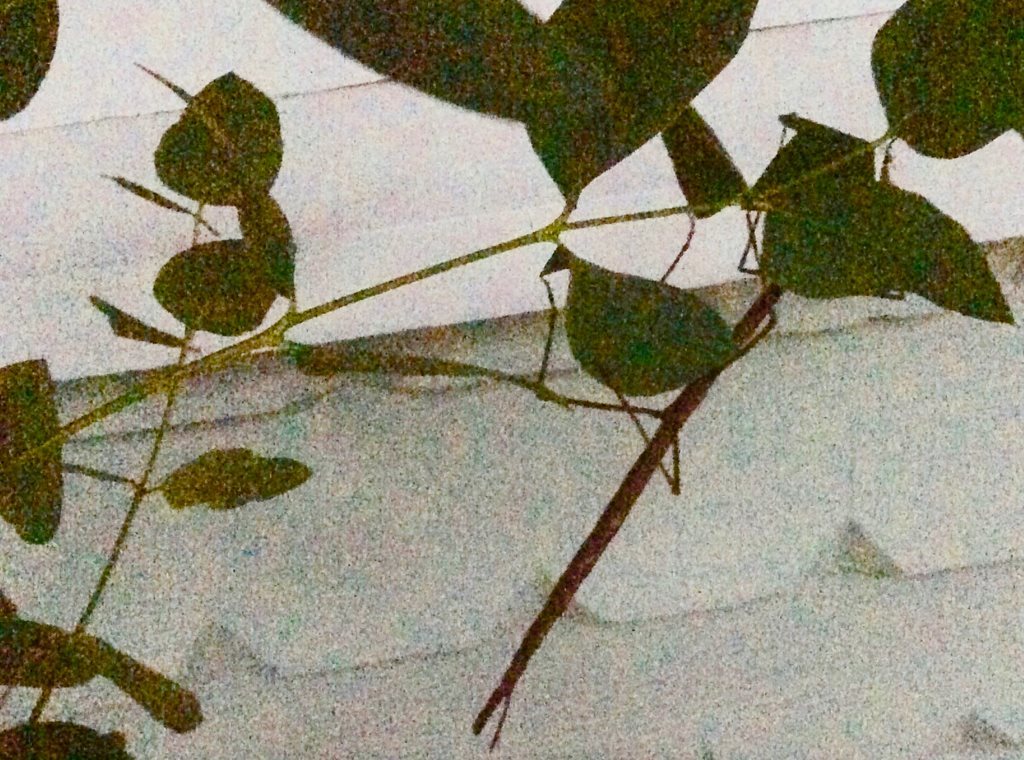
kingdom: Animalia
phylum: Arthropoda
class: Insecta
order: Phasmida
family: Phasmatidae
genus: Ctenomorpha
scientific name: Ctenomorpha marginipennis
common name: Margined-winged stick-insect
